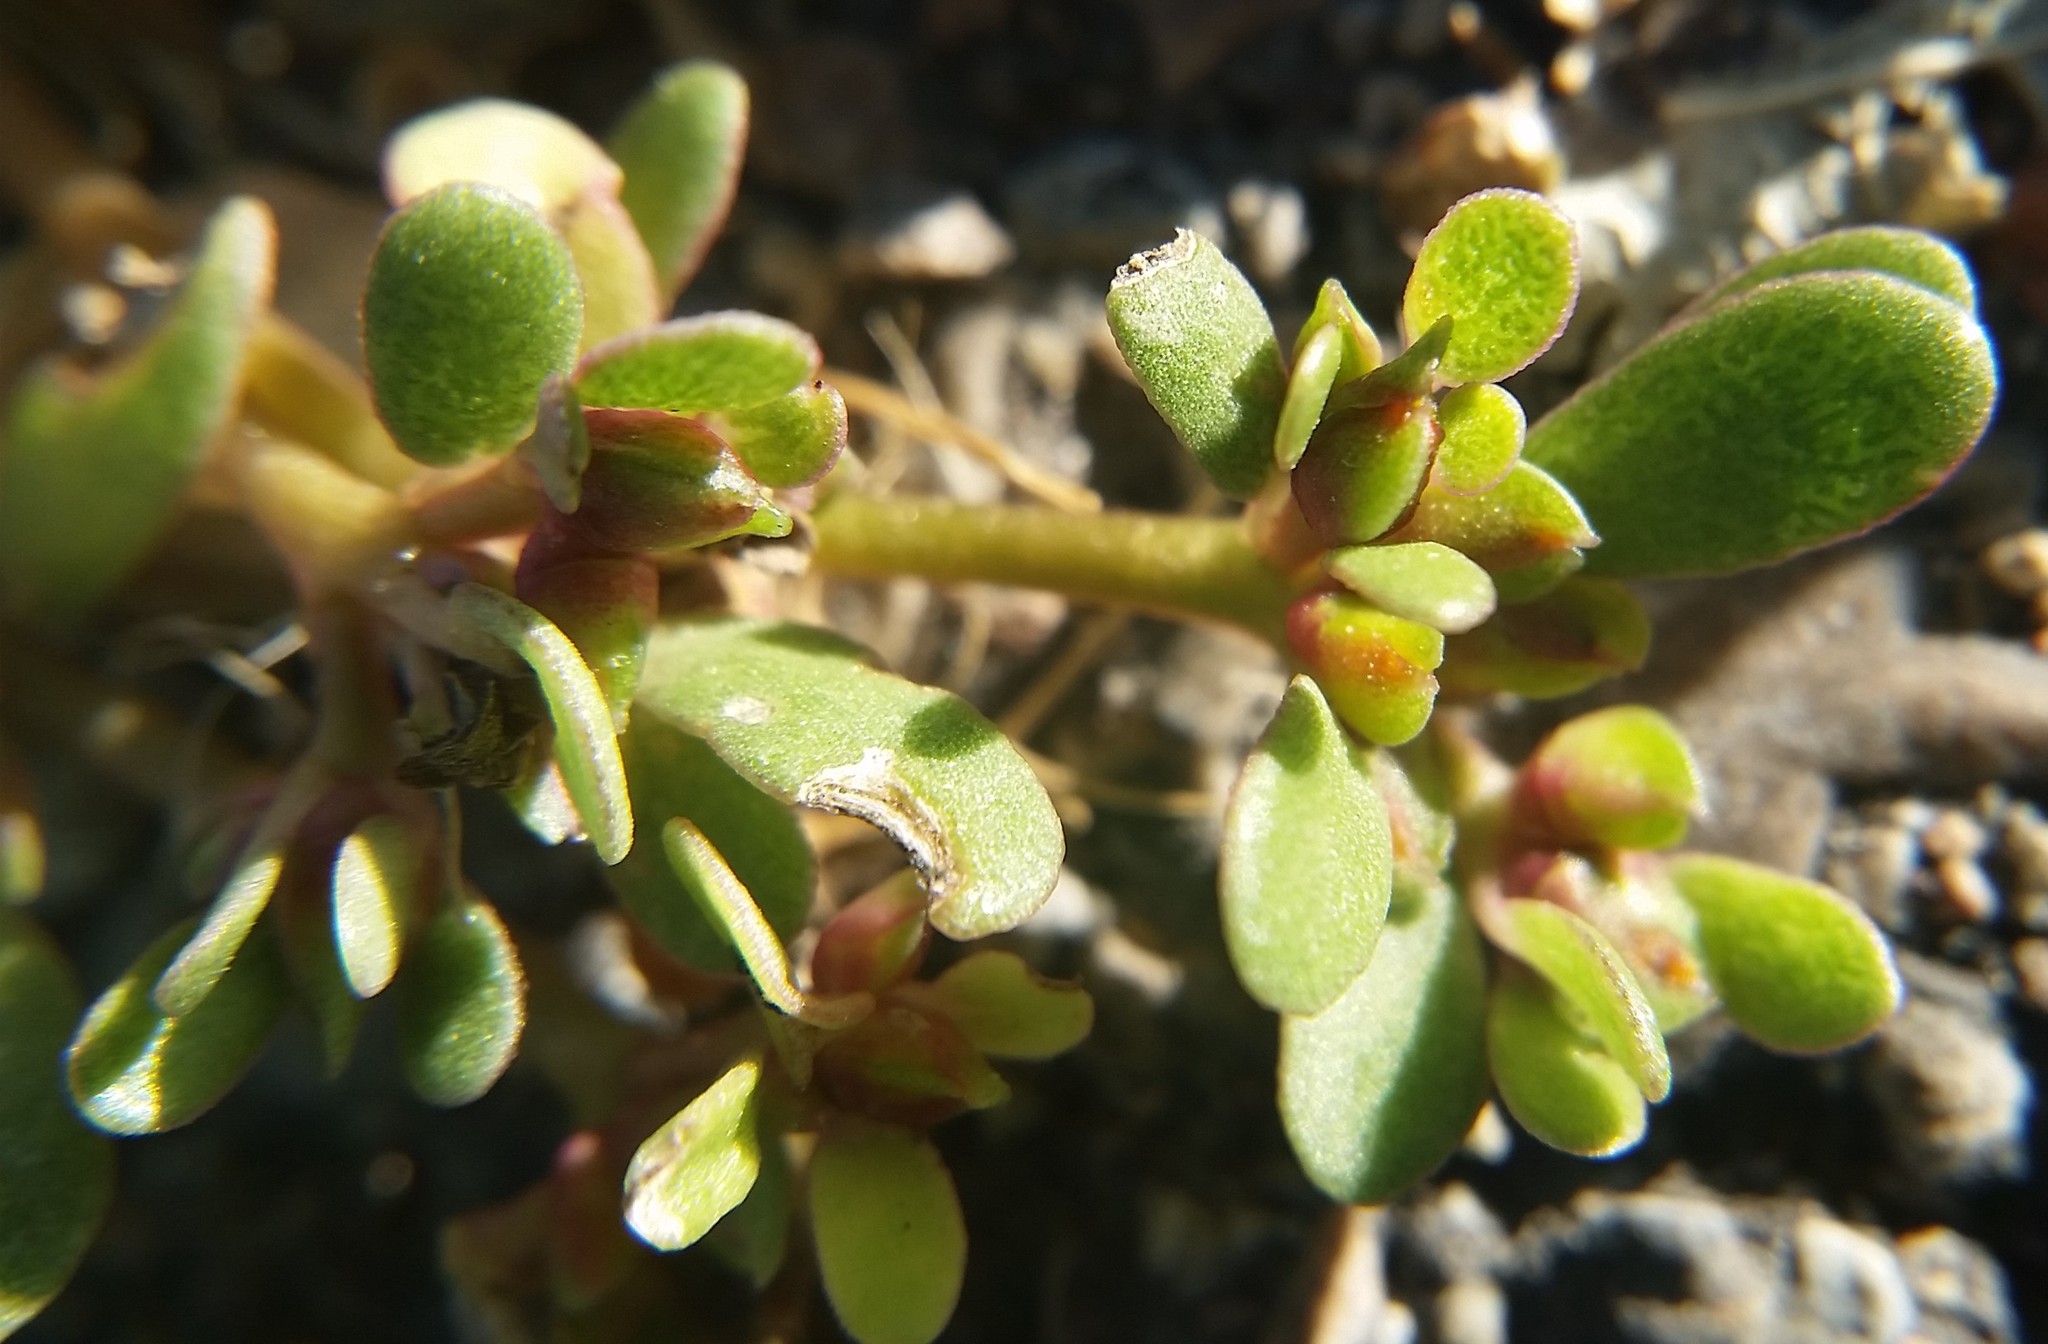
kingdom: Plantae
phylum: Tracheophyta
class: Magnoliopsida
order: Caryophyllales
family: Portulacaceae
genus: Portulaca
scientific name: Portulaca oleracea
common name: Common purslane
